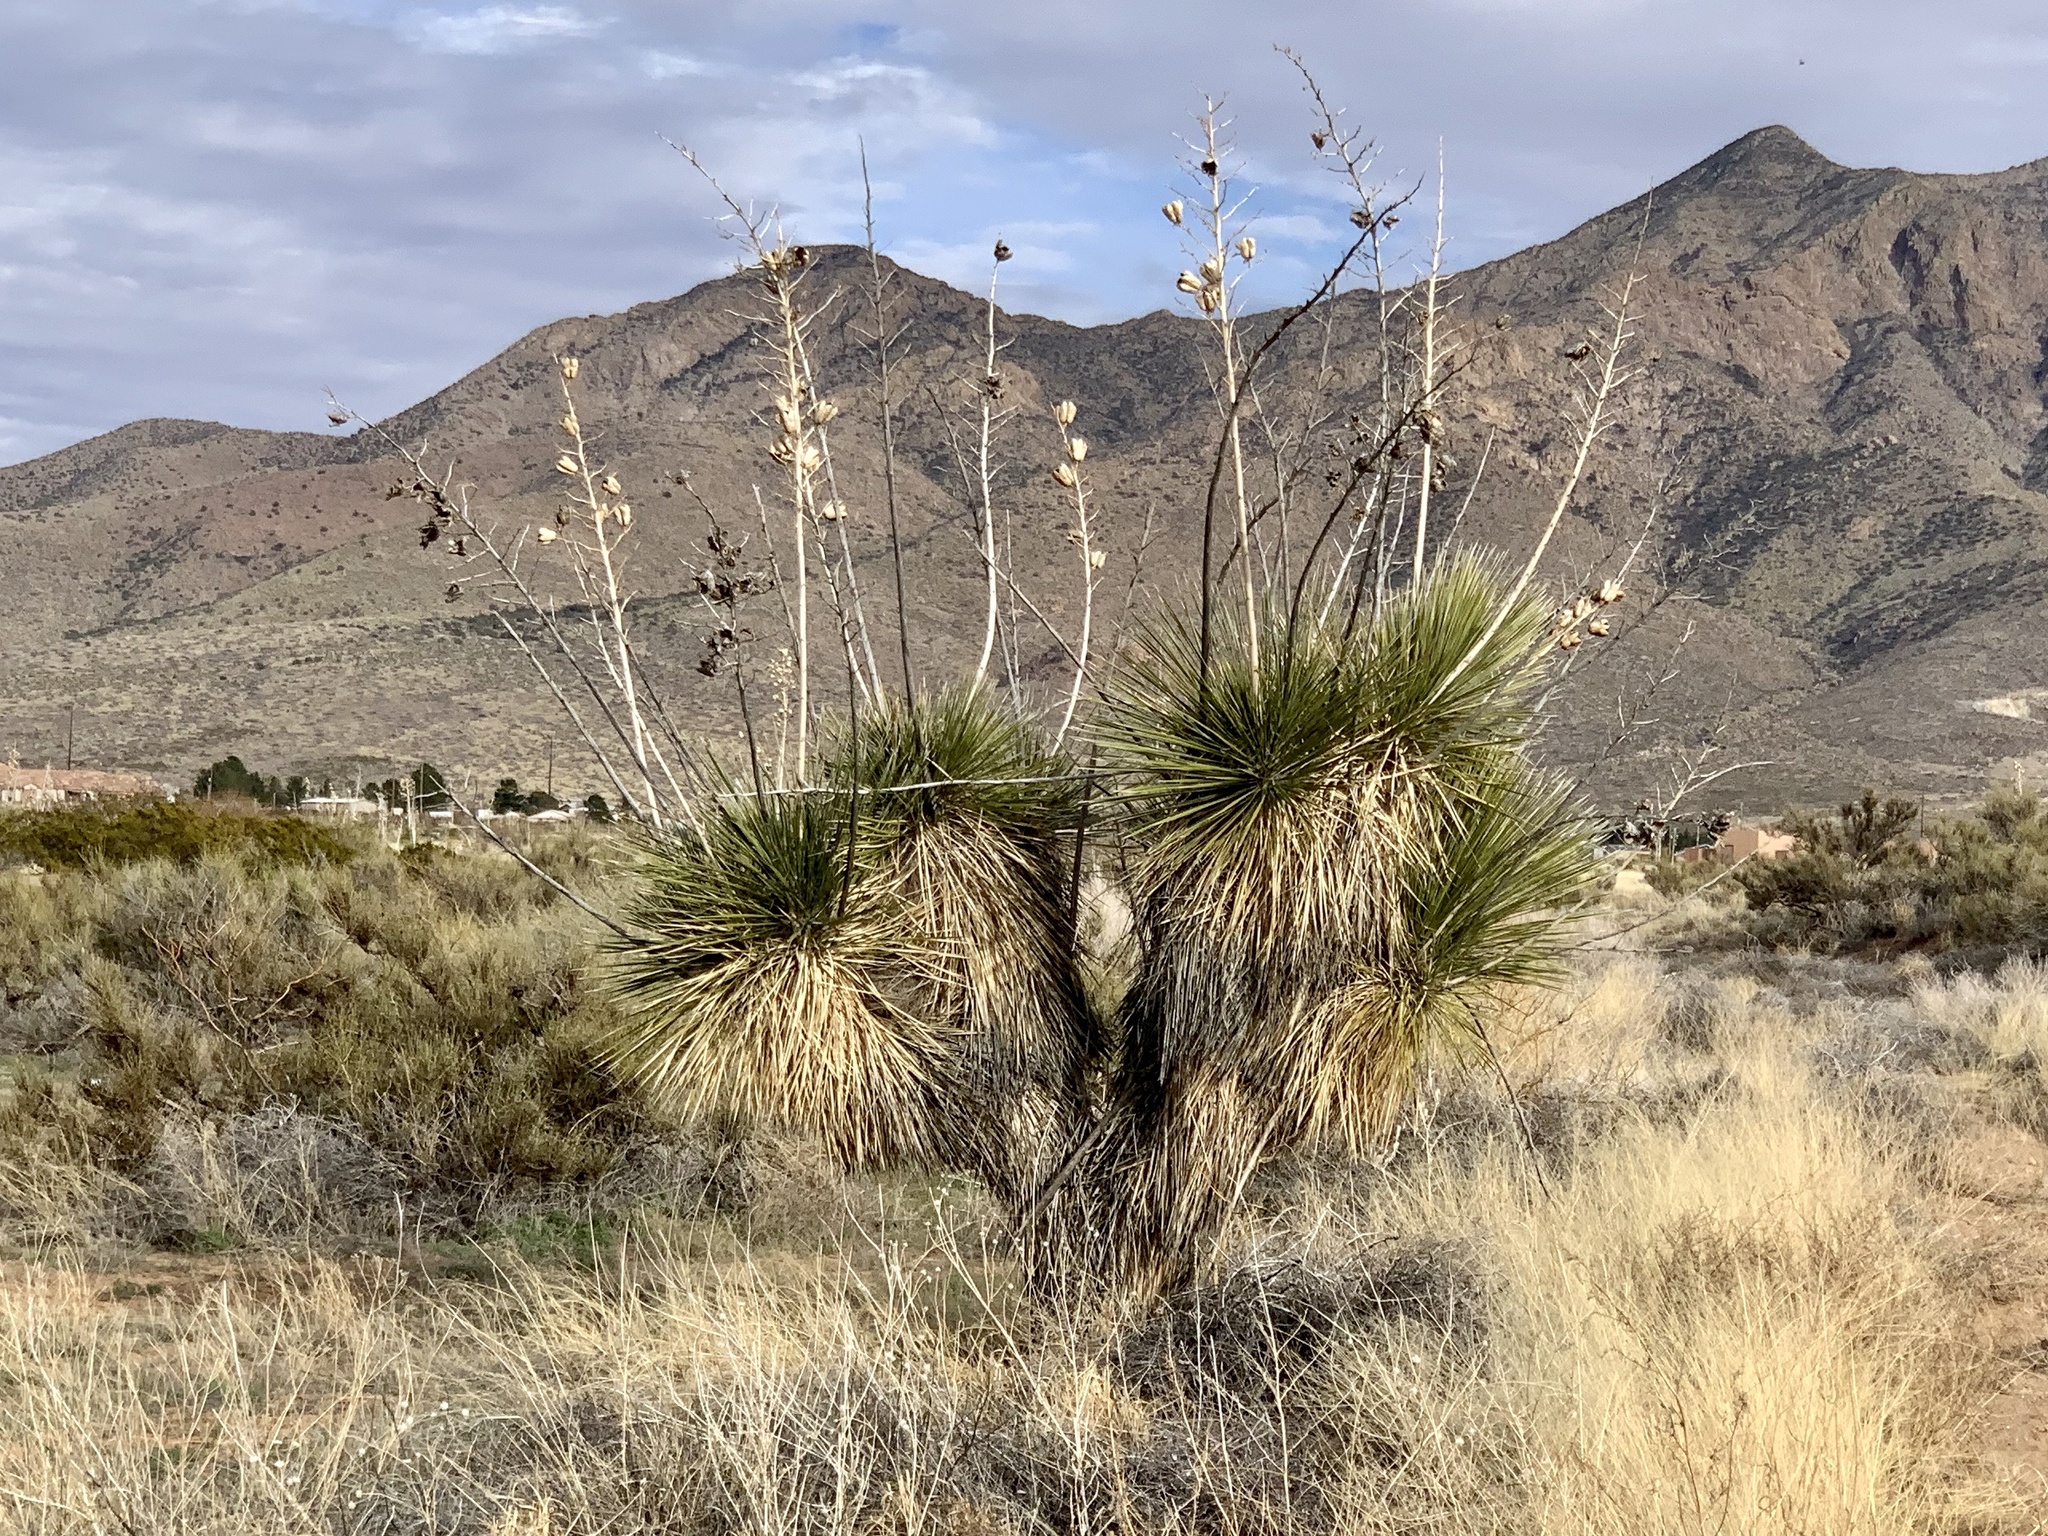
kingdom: Plantae
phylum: Tracheophyta
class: Liliopsida
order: Asparagales
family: Asparagaceae
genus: Yucca
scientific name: Yucca elata
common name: Palmella
